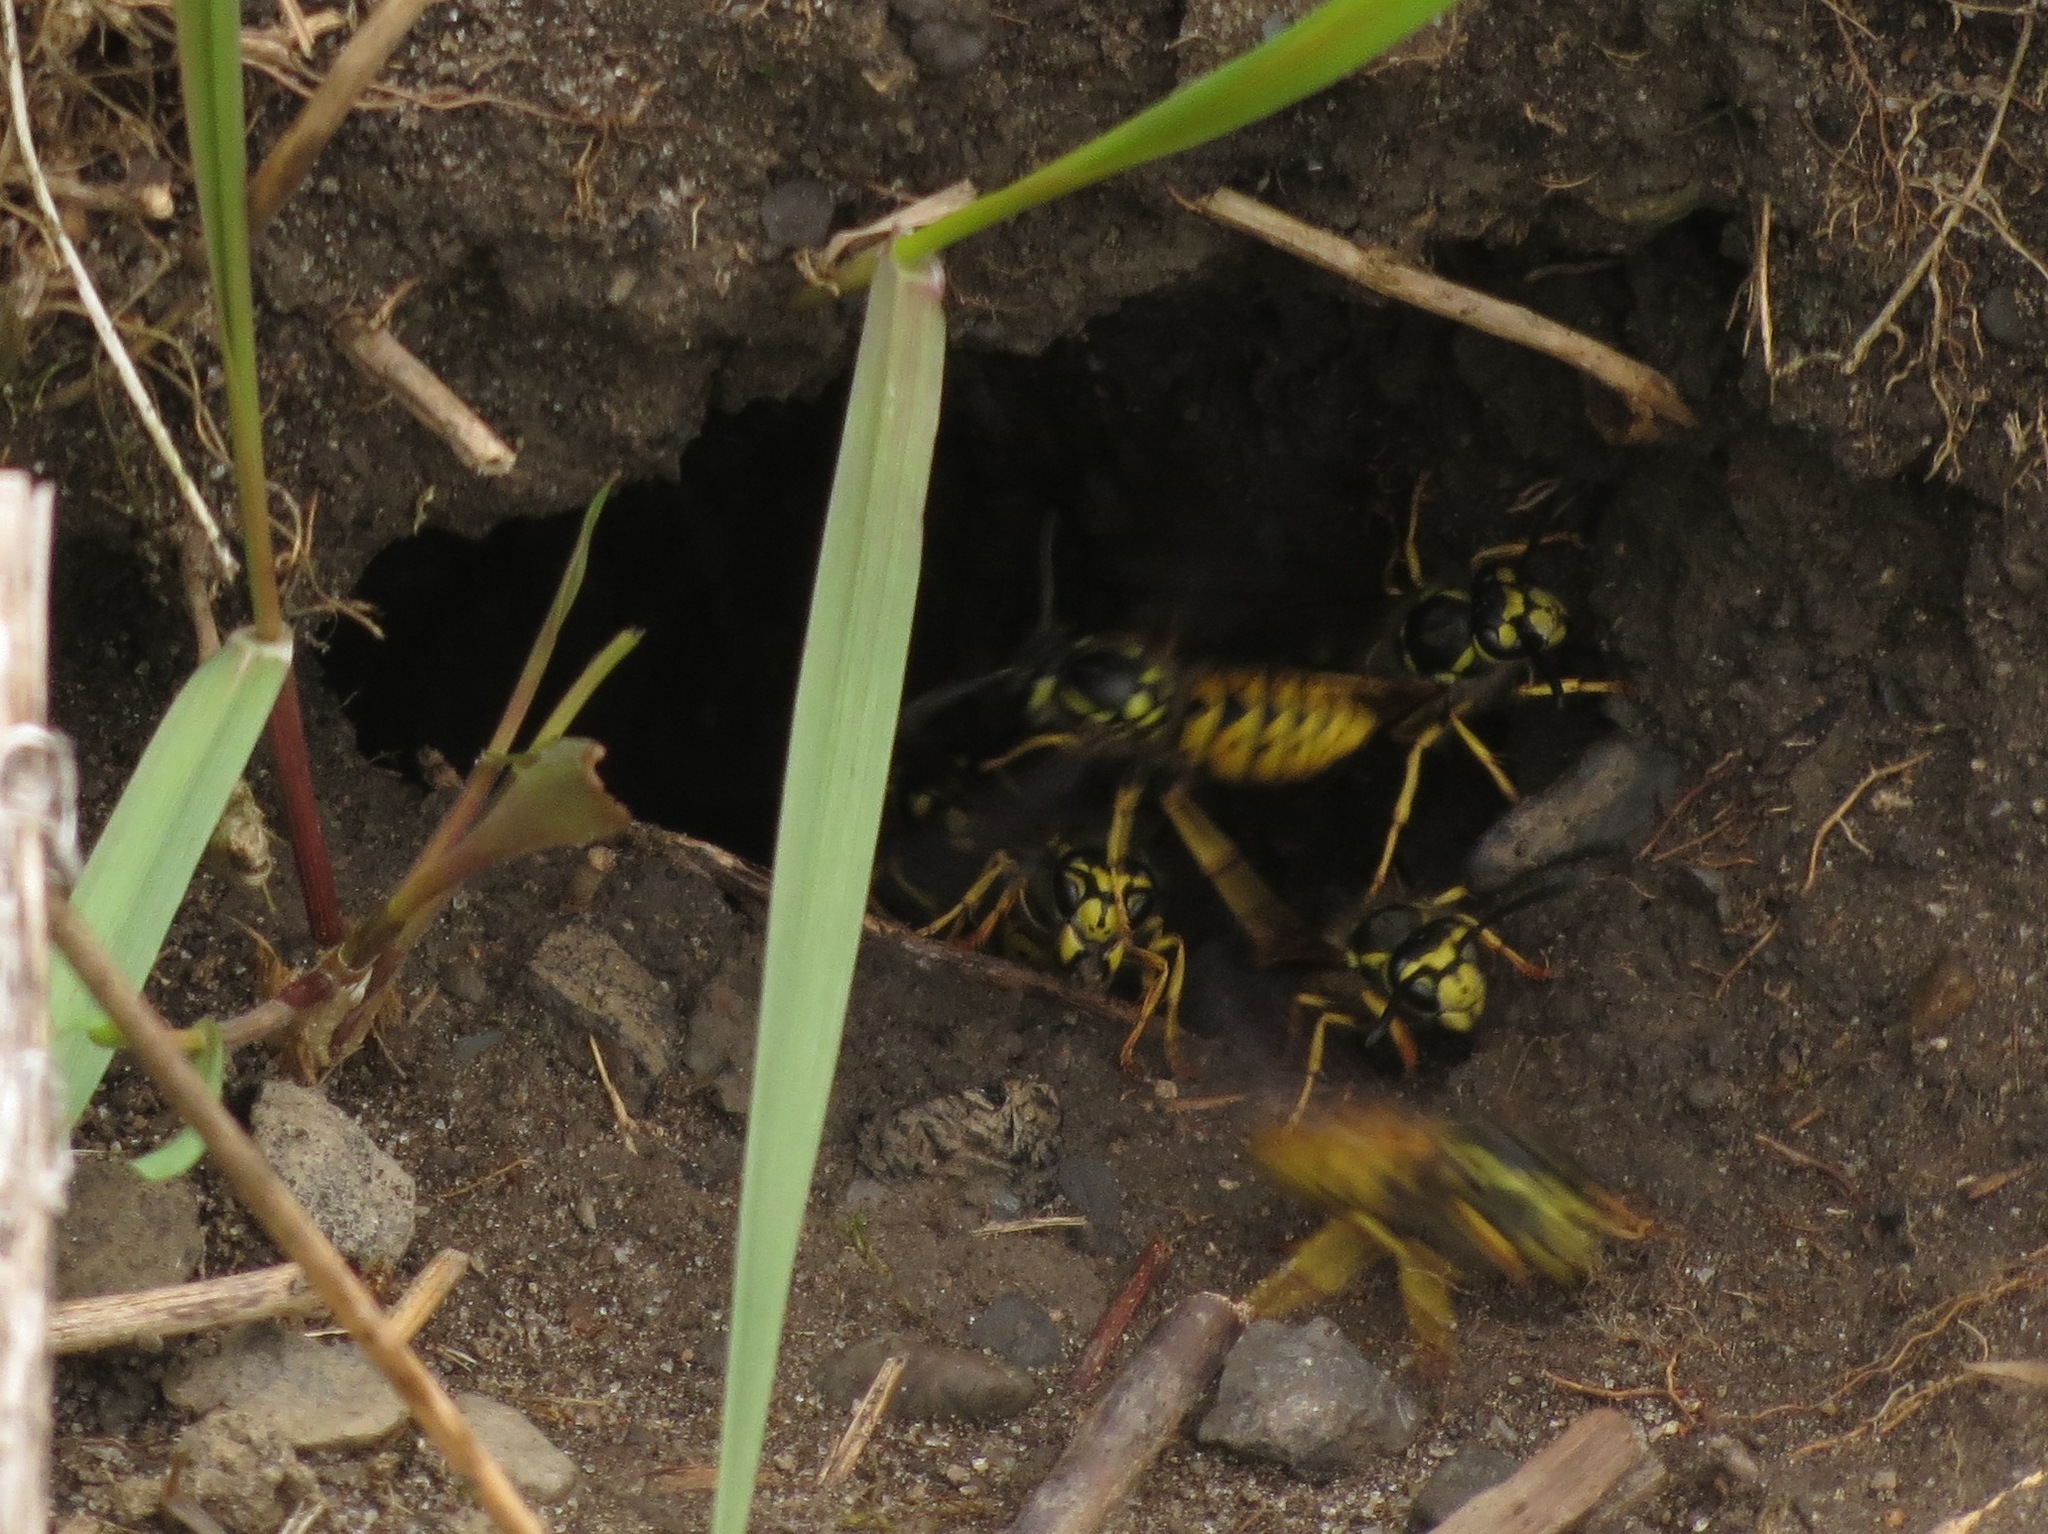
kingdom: Animalia
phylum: Arthropoda
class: Insecta
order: Hymenoptera
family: Vespidae
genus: Vespula
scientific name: Vespula germanica
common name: German wasp
